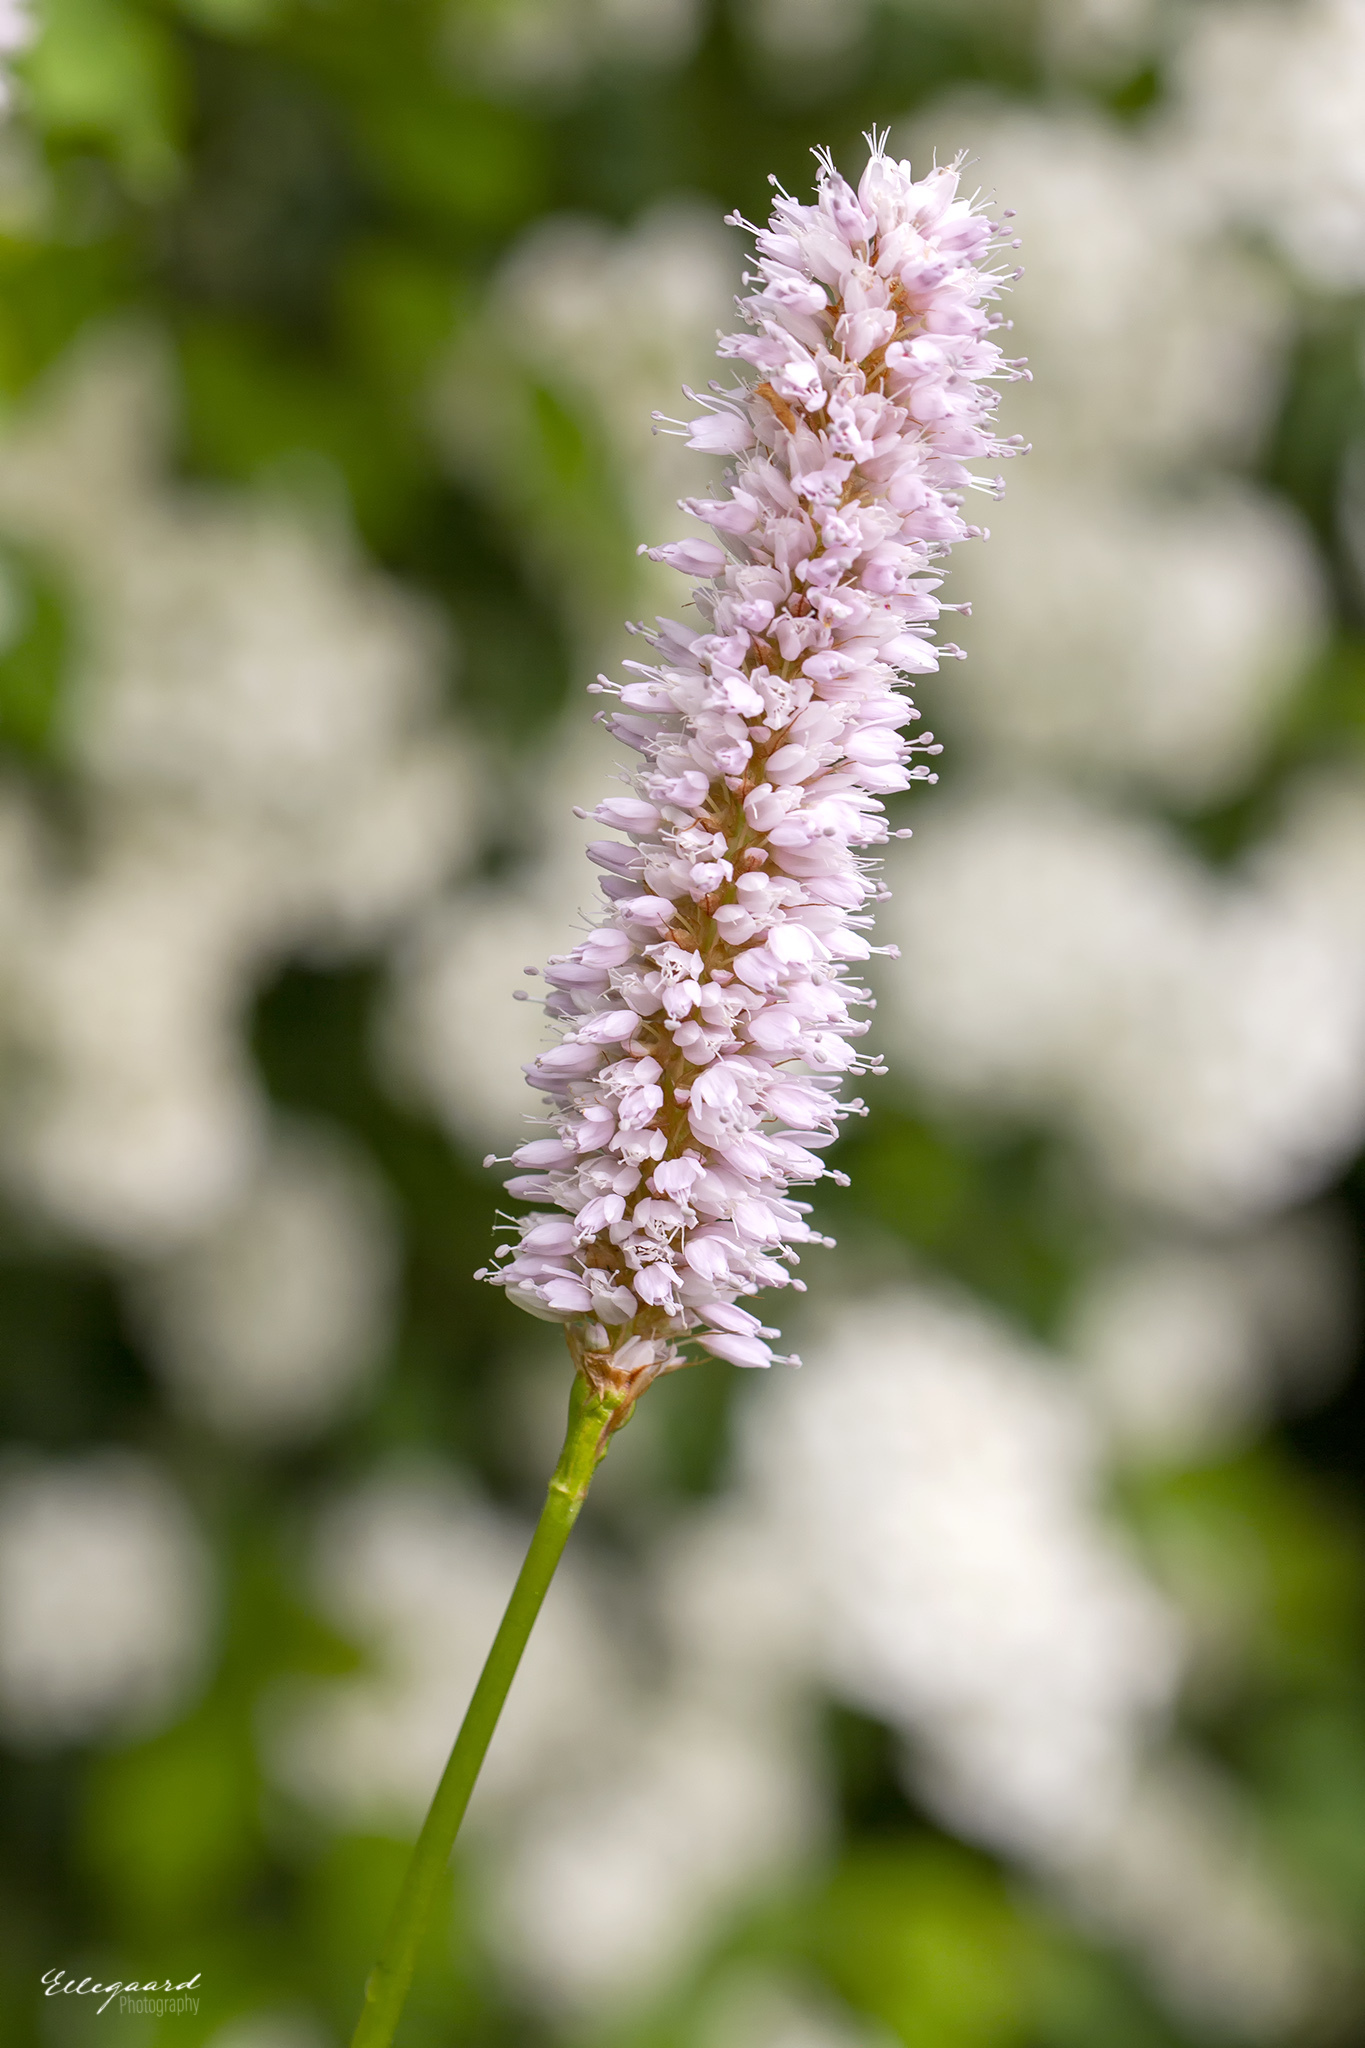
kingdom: Plantae
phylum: Tracheophyta
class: Magnoliopsida
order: Caryophyllales
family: Polygonaceae
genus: Bistorta
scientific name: Bistorta officinalis
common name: Common bistort
